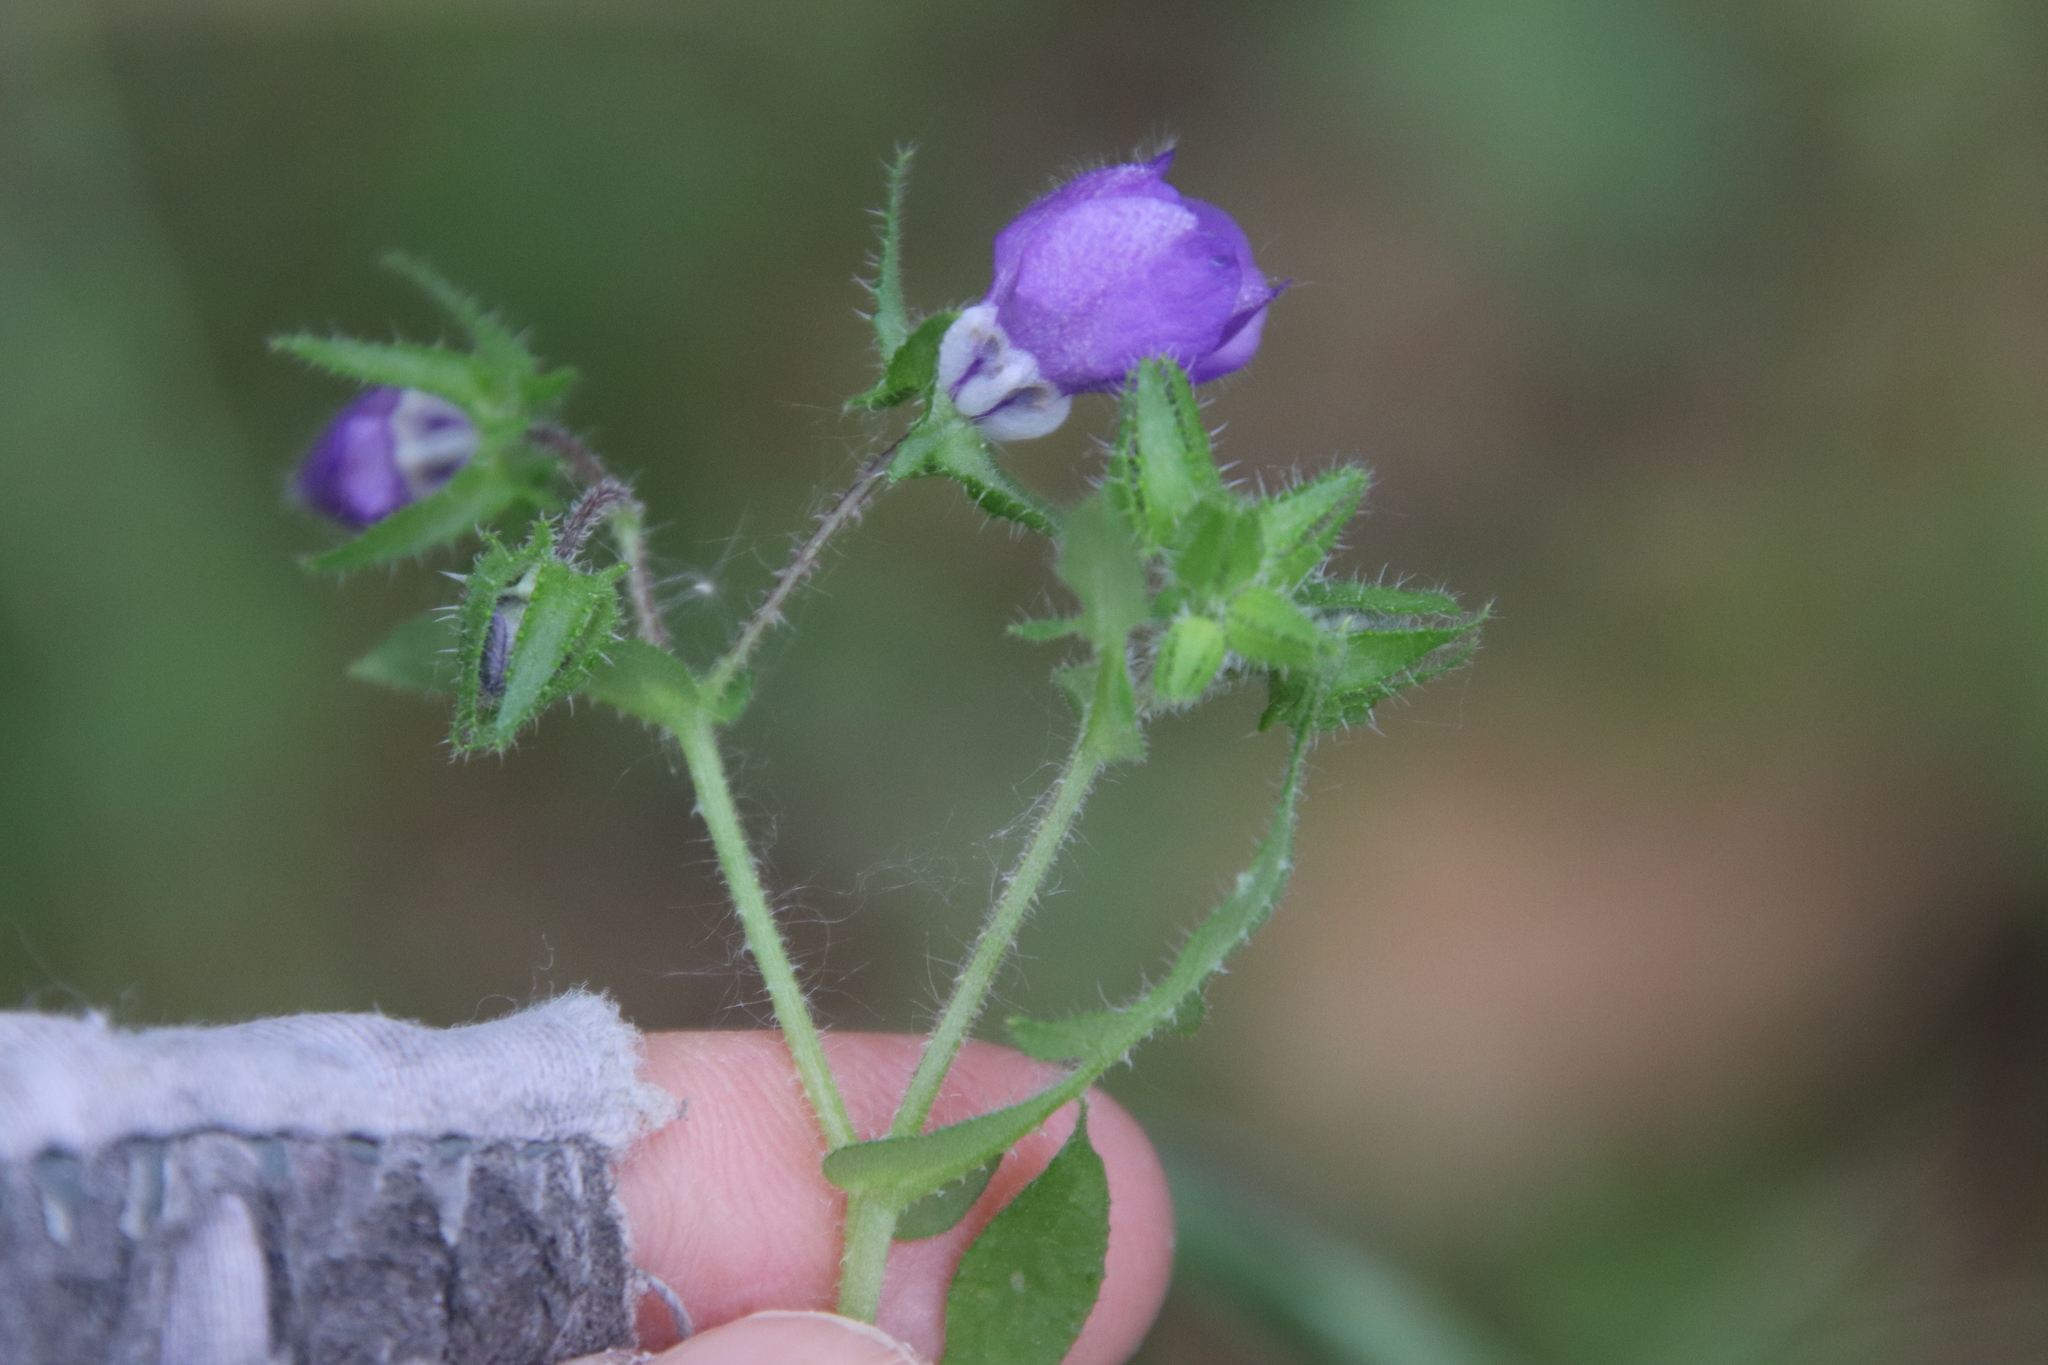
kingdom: Plantae
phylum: Tracheophyta
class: Magnoliopsida
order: Boraginales
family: Hydrophyllaceae
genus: Pholistoma
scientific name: Pholistoma auritum
